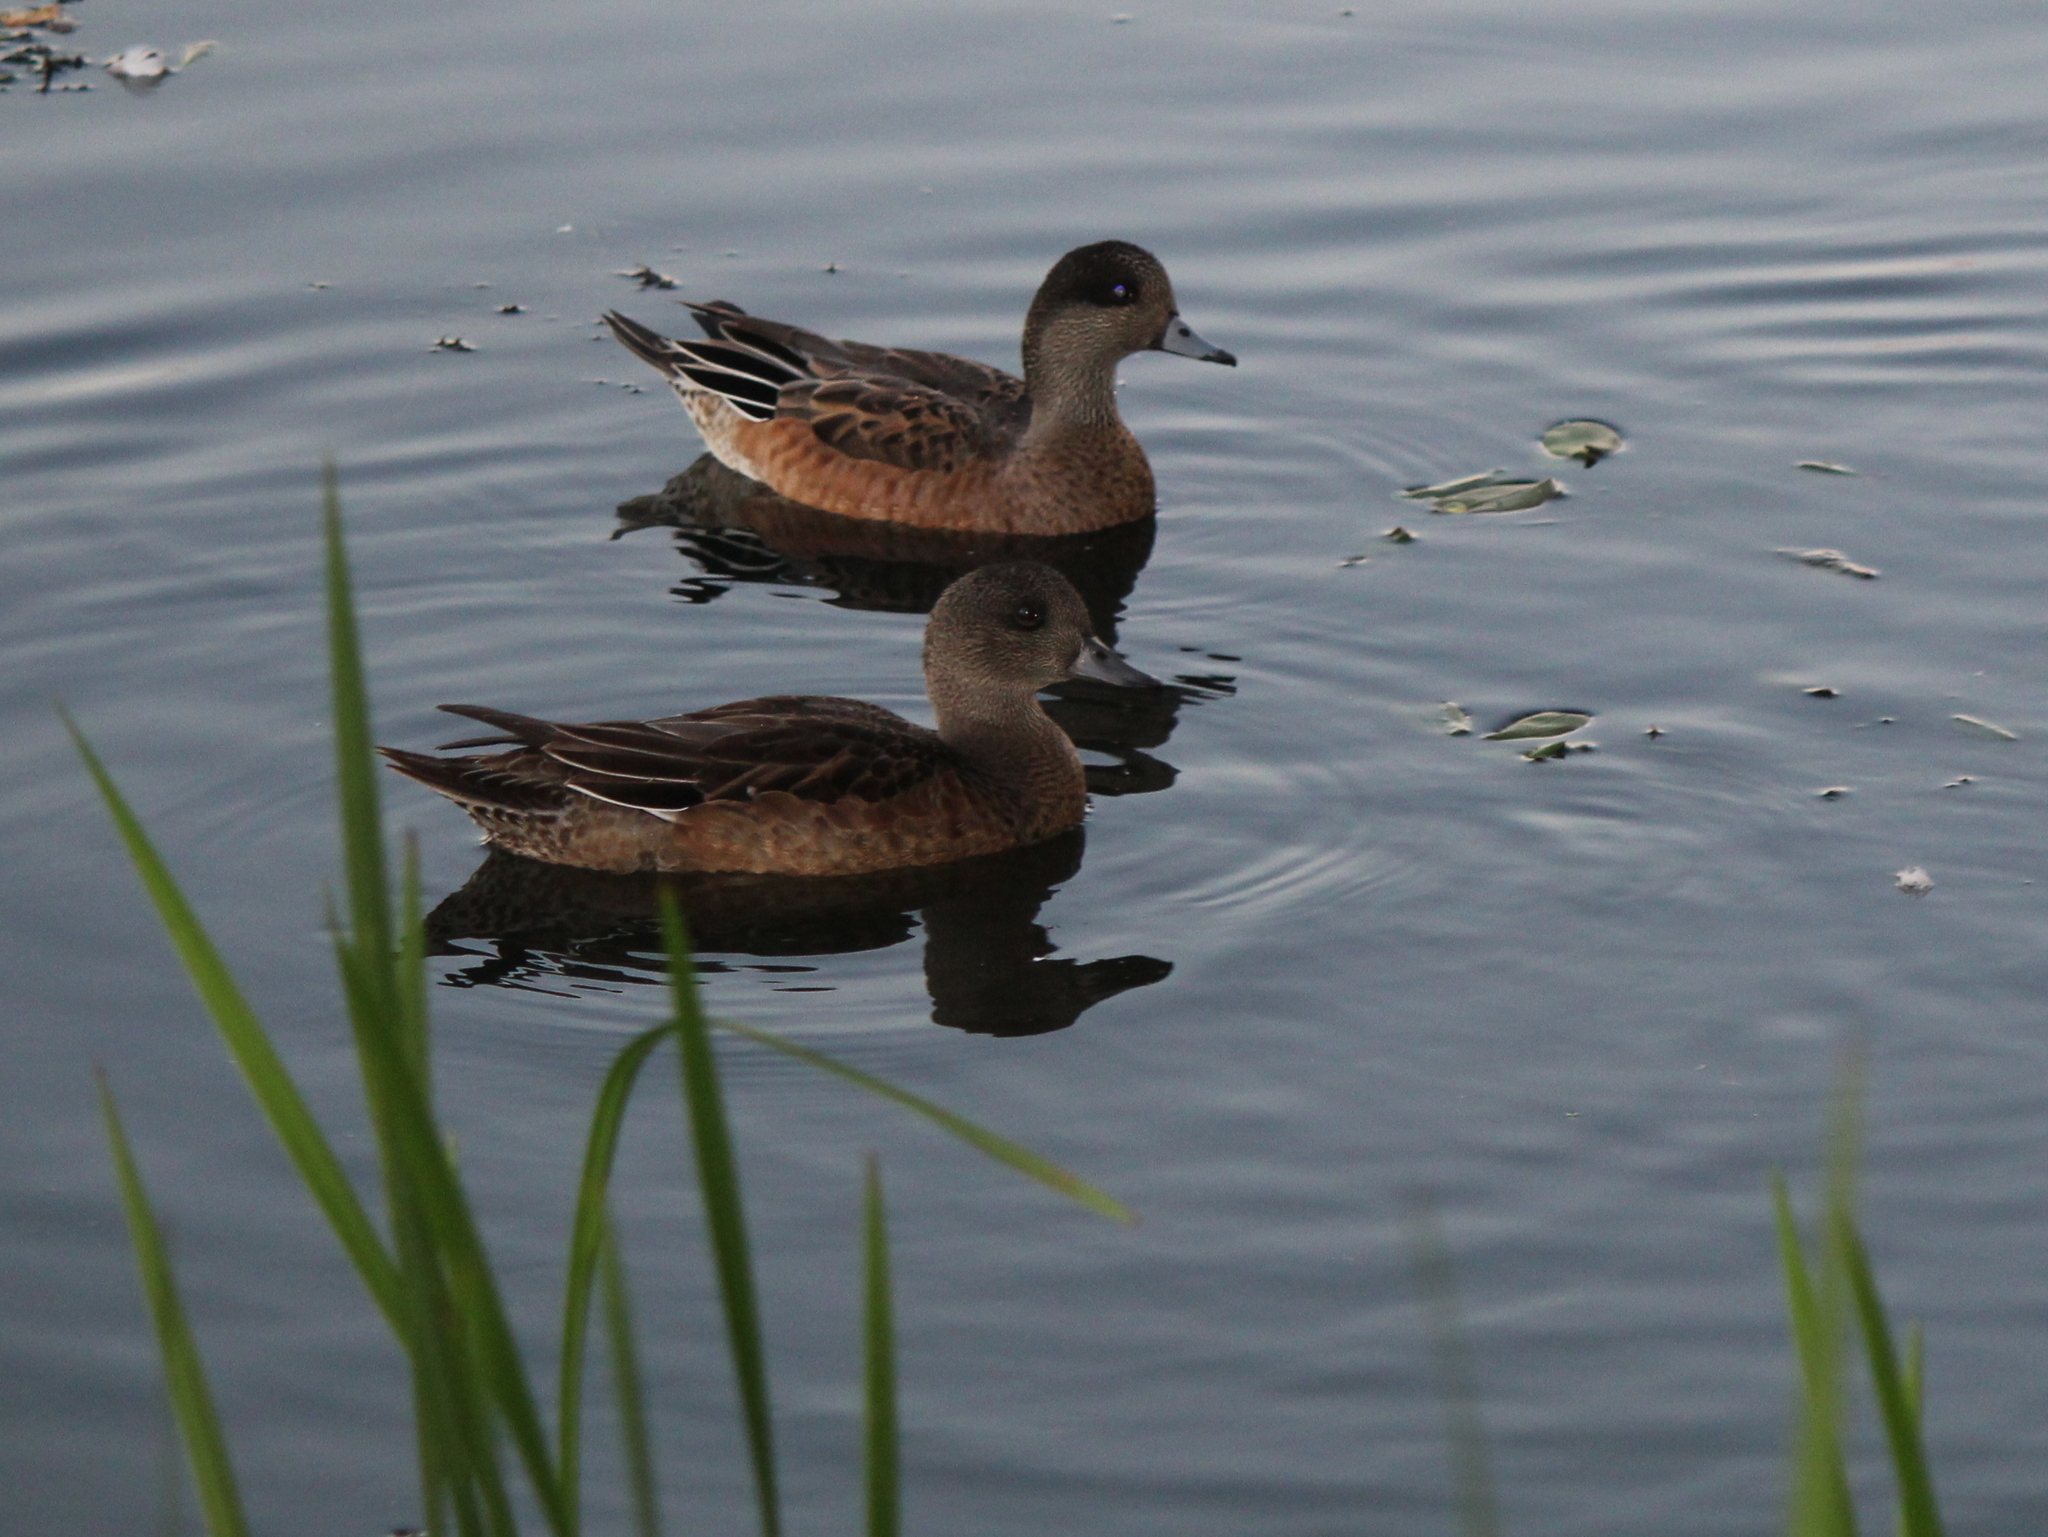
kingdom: Animalia
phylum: Chordata
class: Aves
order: Anseriformes
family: Anatidae
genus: Mareca
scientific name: Mareca americana
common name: American wigeon
